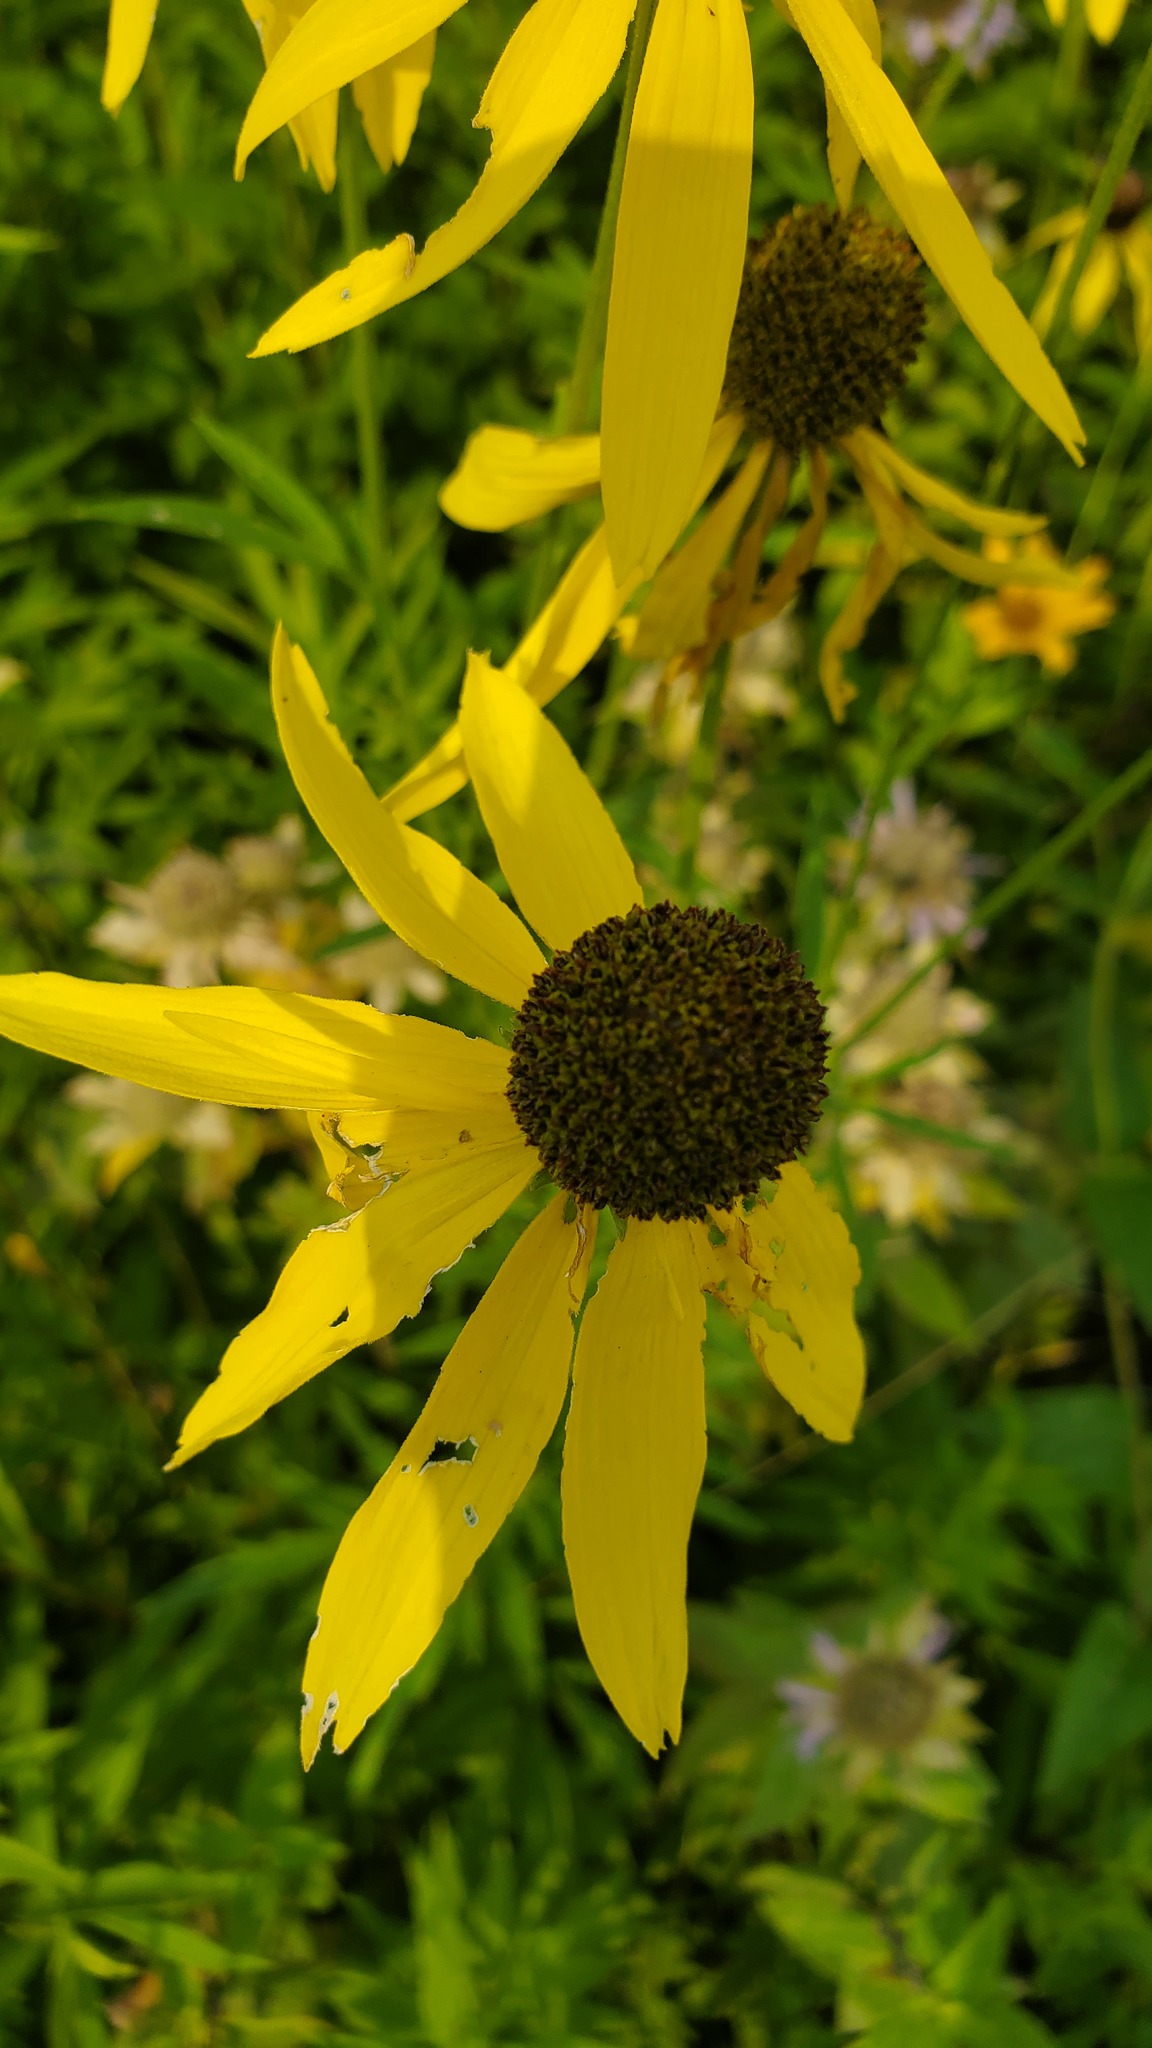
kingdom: Plantae
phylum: Tracheophyta
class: Magnoliopsida
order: Asterales
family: Asteraceae
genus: Ratibida
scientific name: Ratibida pinnata
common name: Drooping prairie-coneflower
